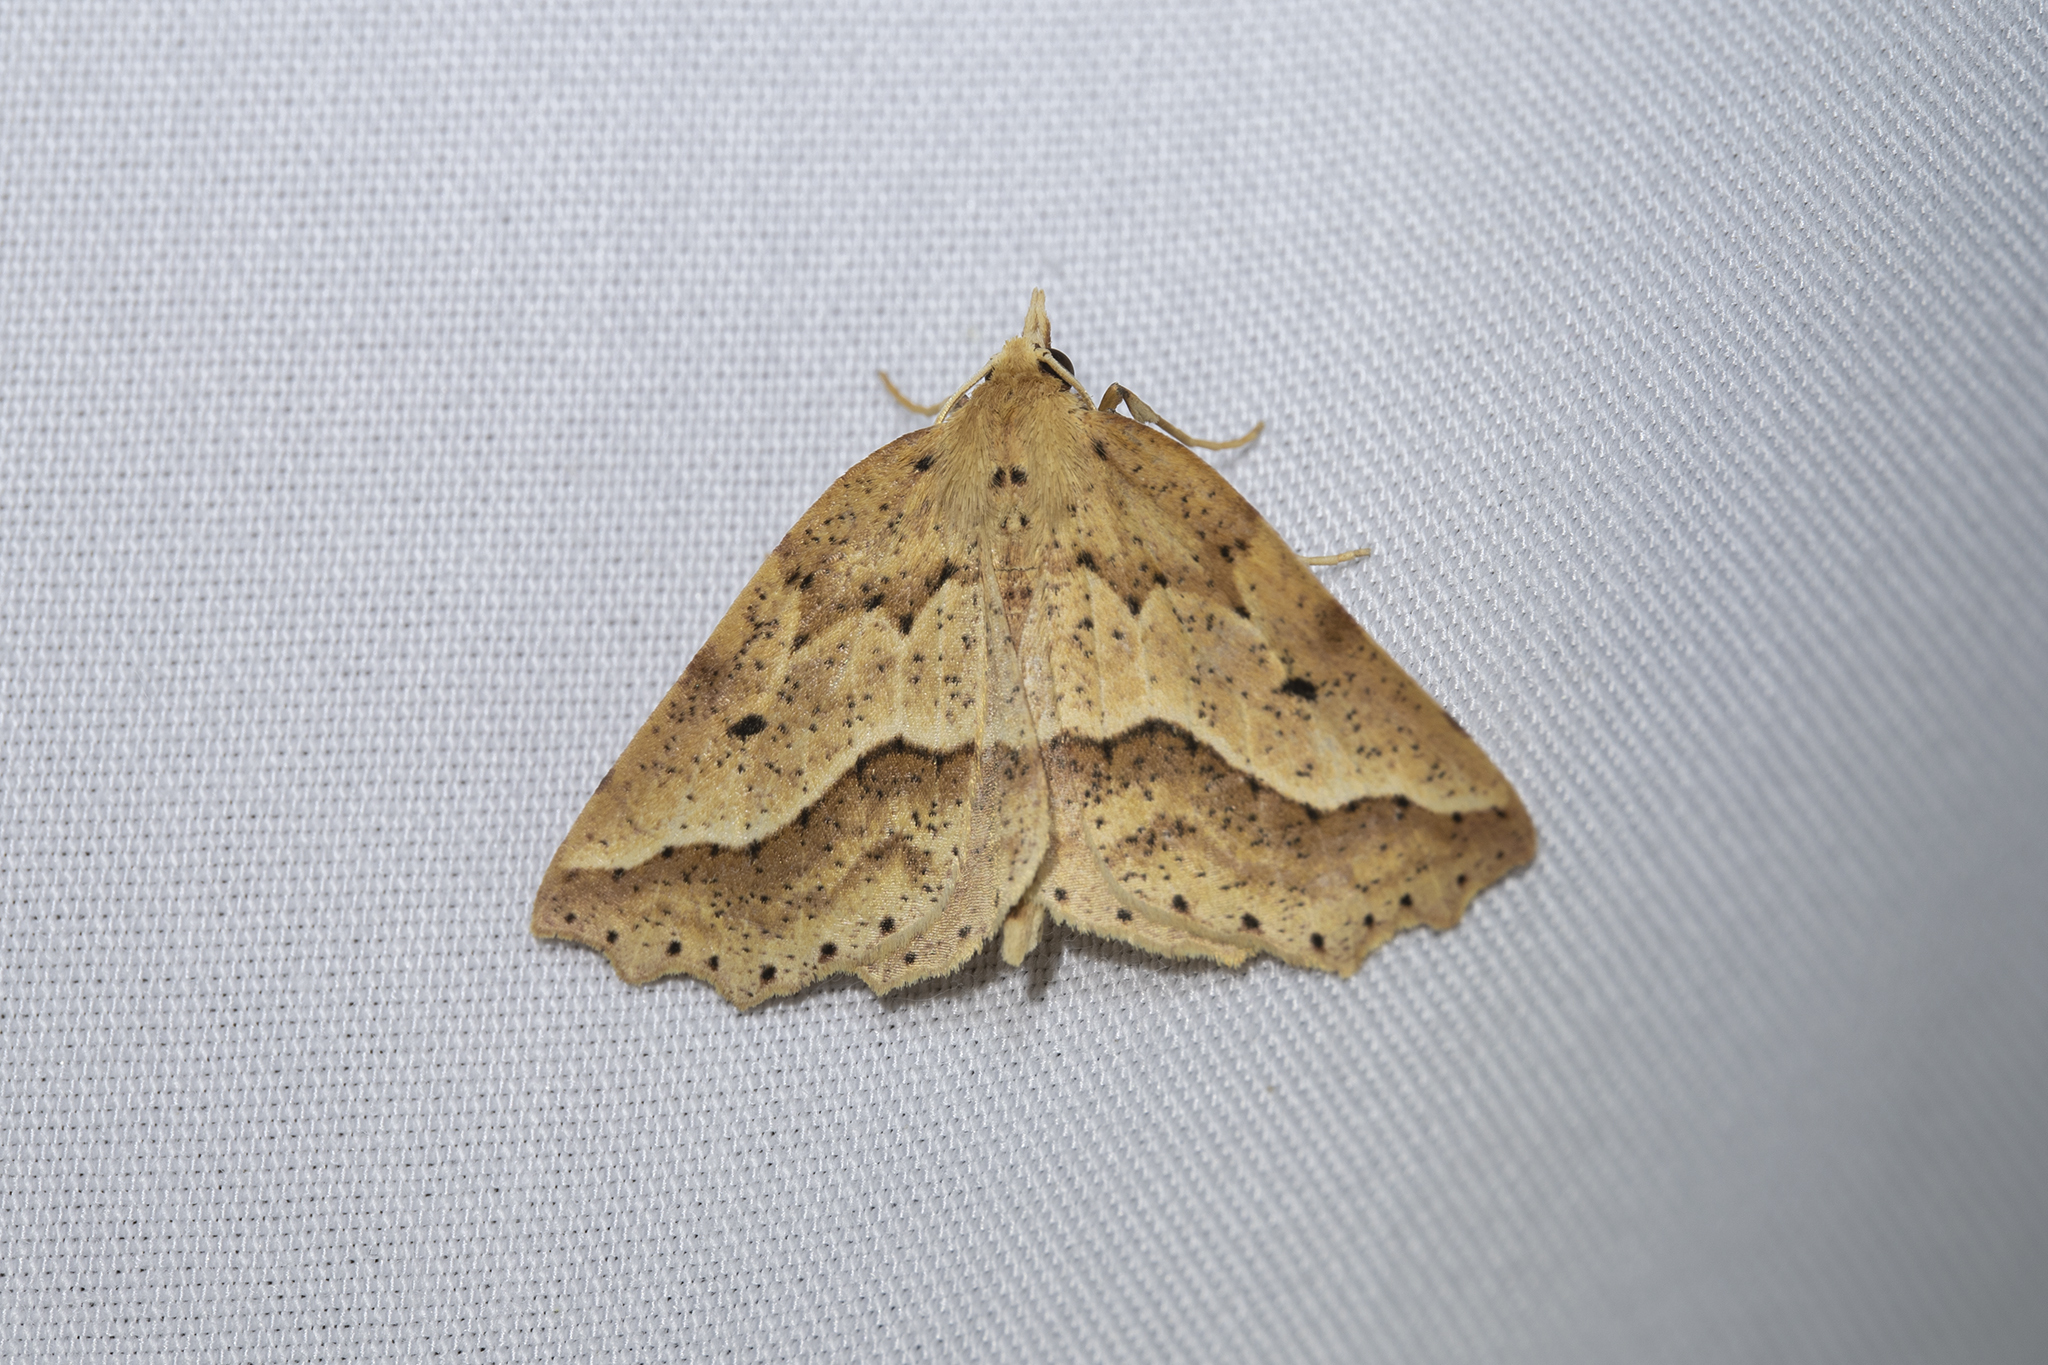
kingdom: Animalia
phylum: Arthropoda
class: Insecta
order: Lepidoptera
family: Geometridae
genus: Ischalis
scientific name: Ischalis variabilis
